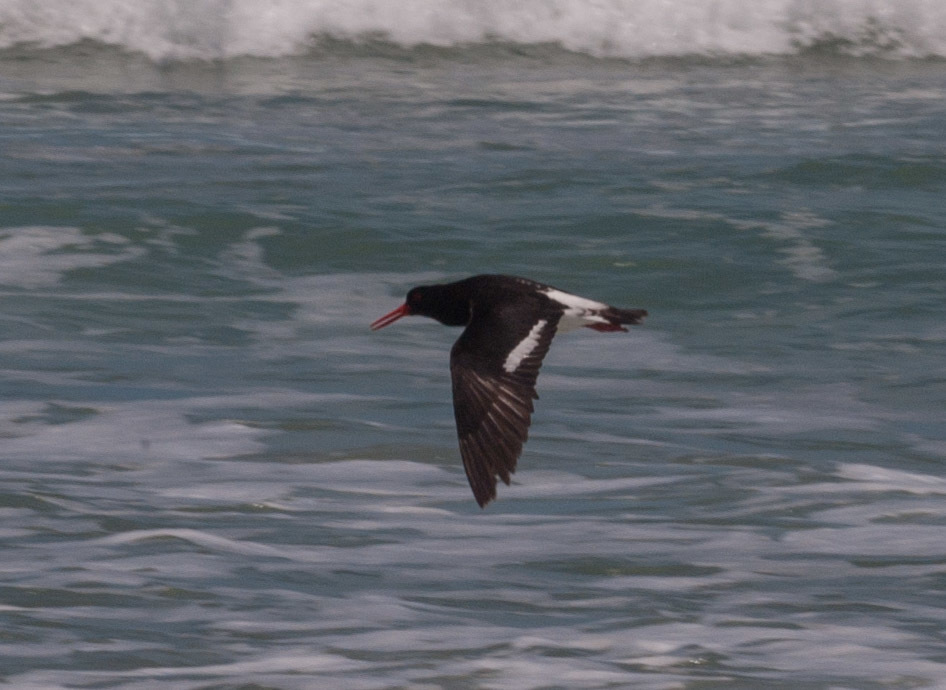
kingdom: Animalia
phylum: Chordata
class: Aves
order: Charadriiformes
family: Haematopodidae
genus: Haematopus
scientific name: Haematopus longirostris
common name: Pied oystercatcher
